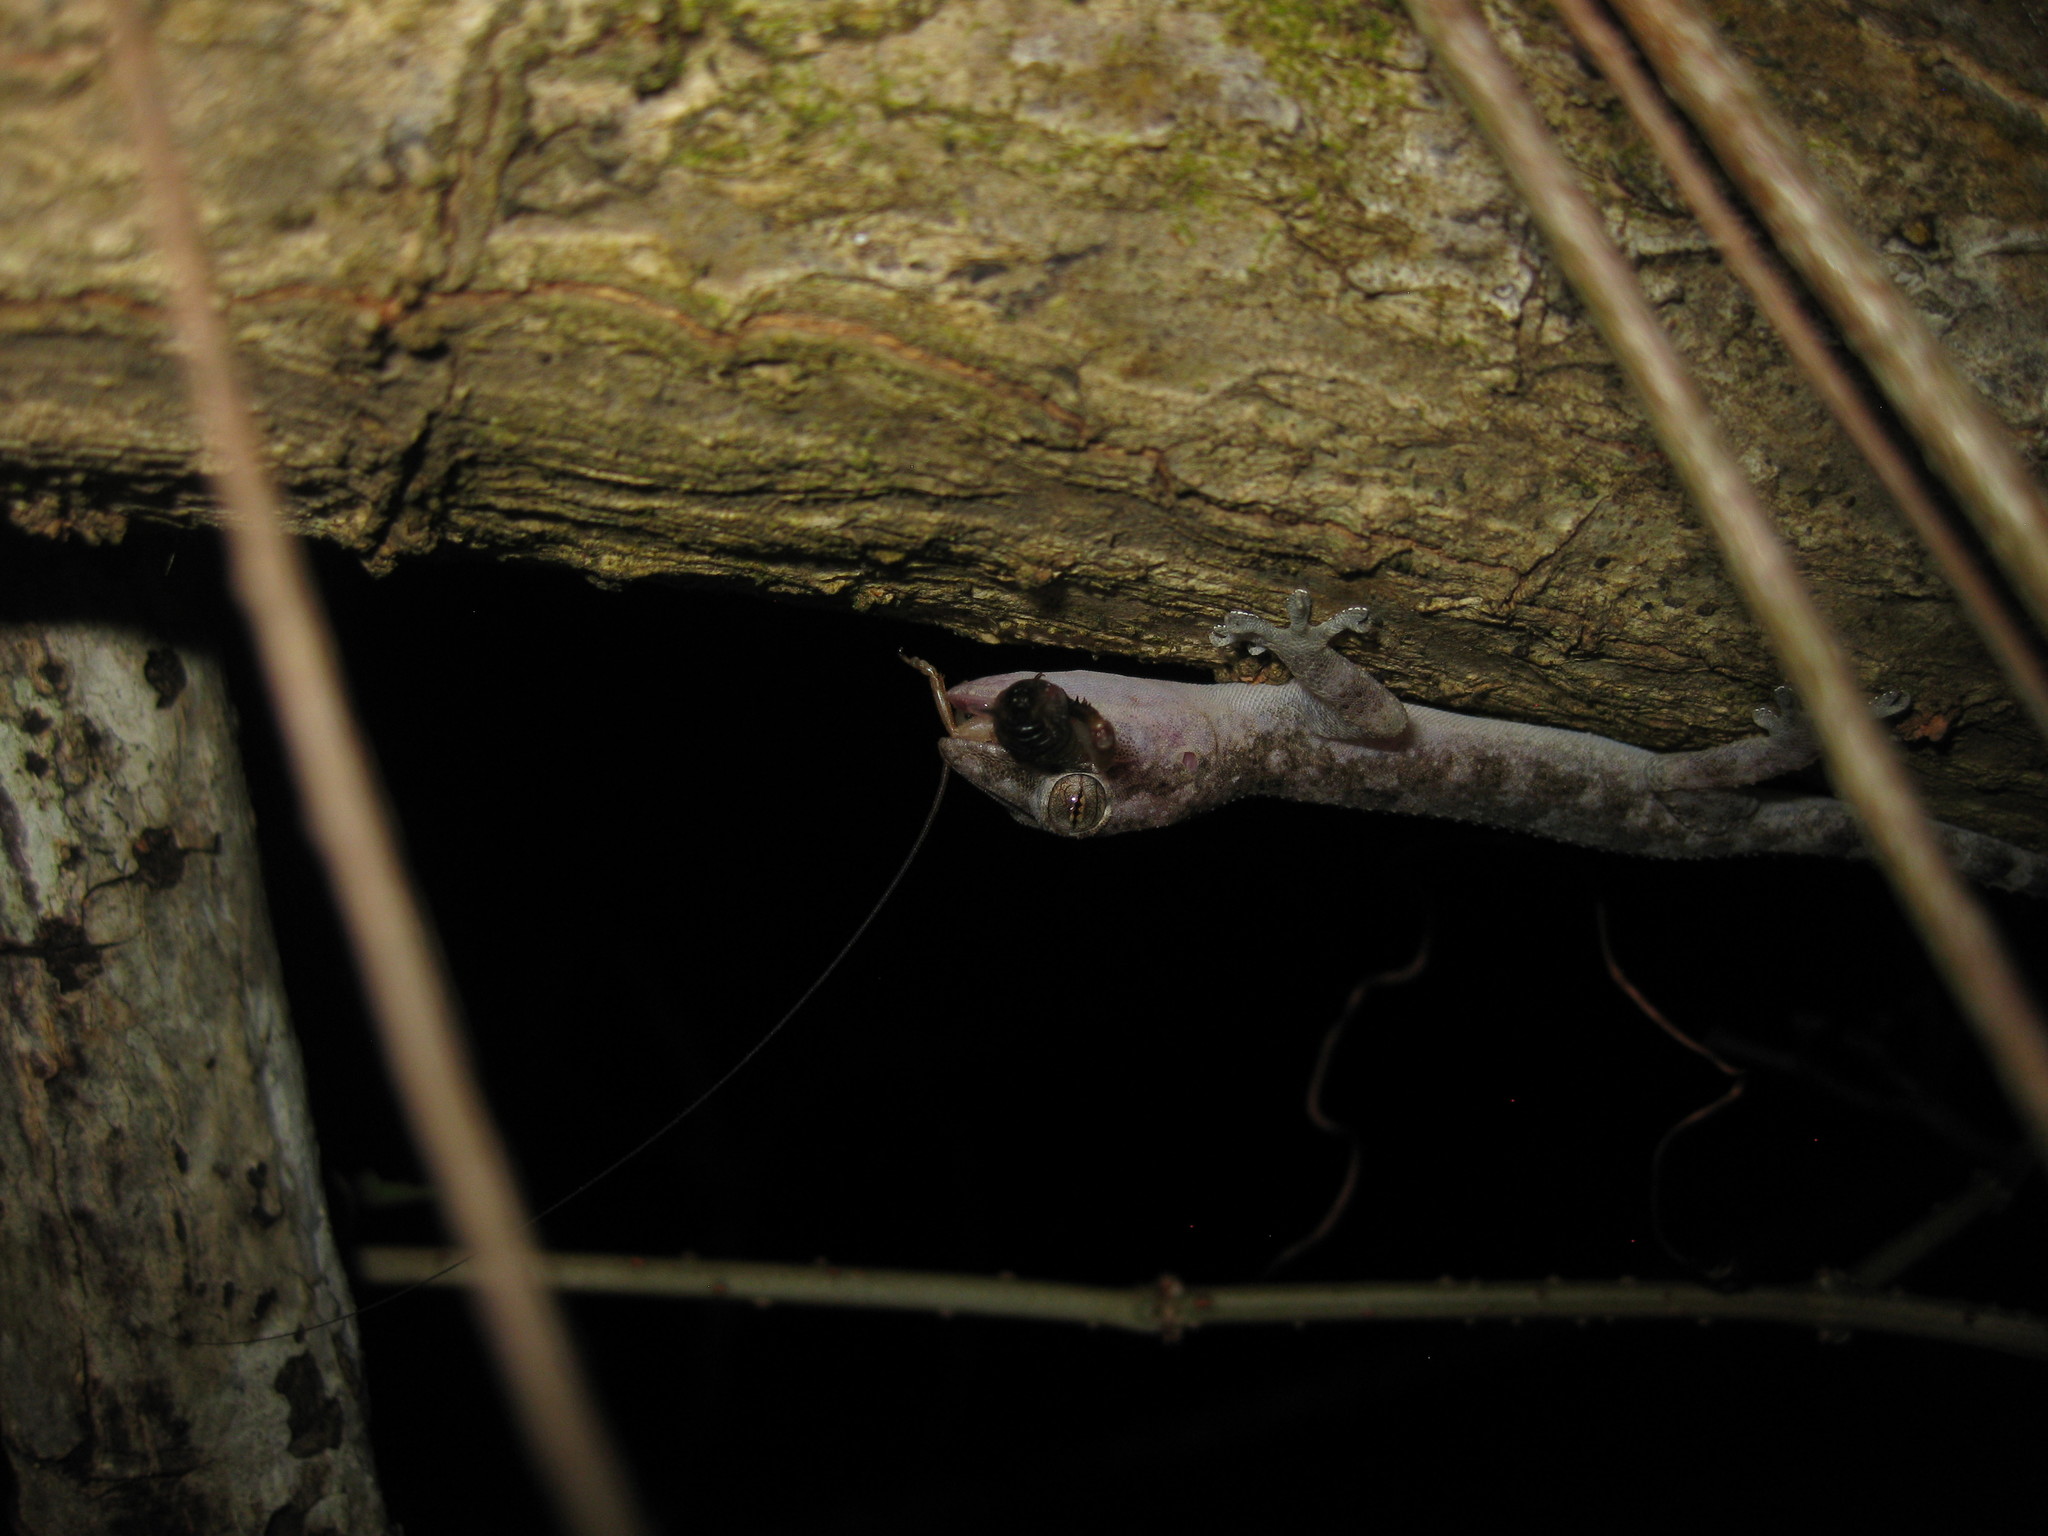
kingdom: Animalia
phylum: Chordata
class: Squamata
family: Gekkonidae
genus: Hemidactylus
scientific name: Hemidactylus mabouia
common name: House gecko
